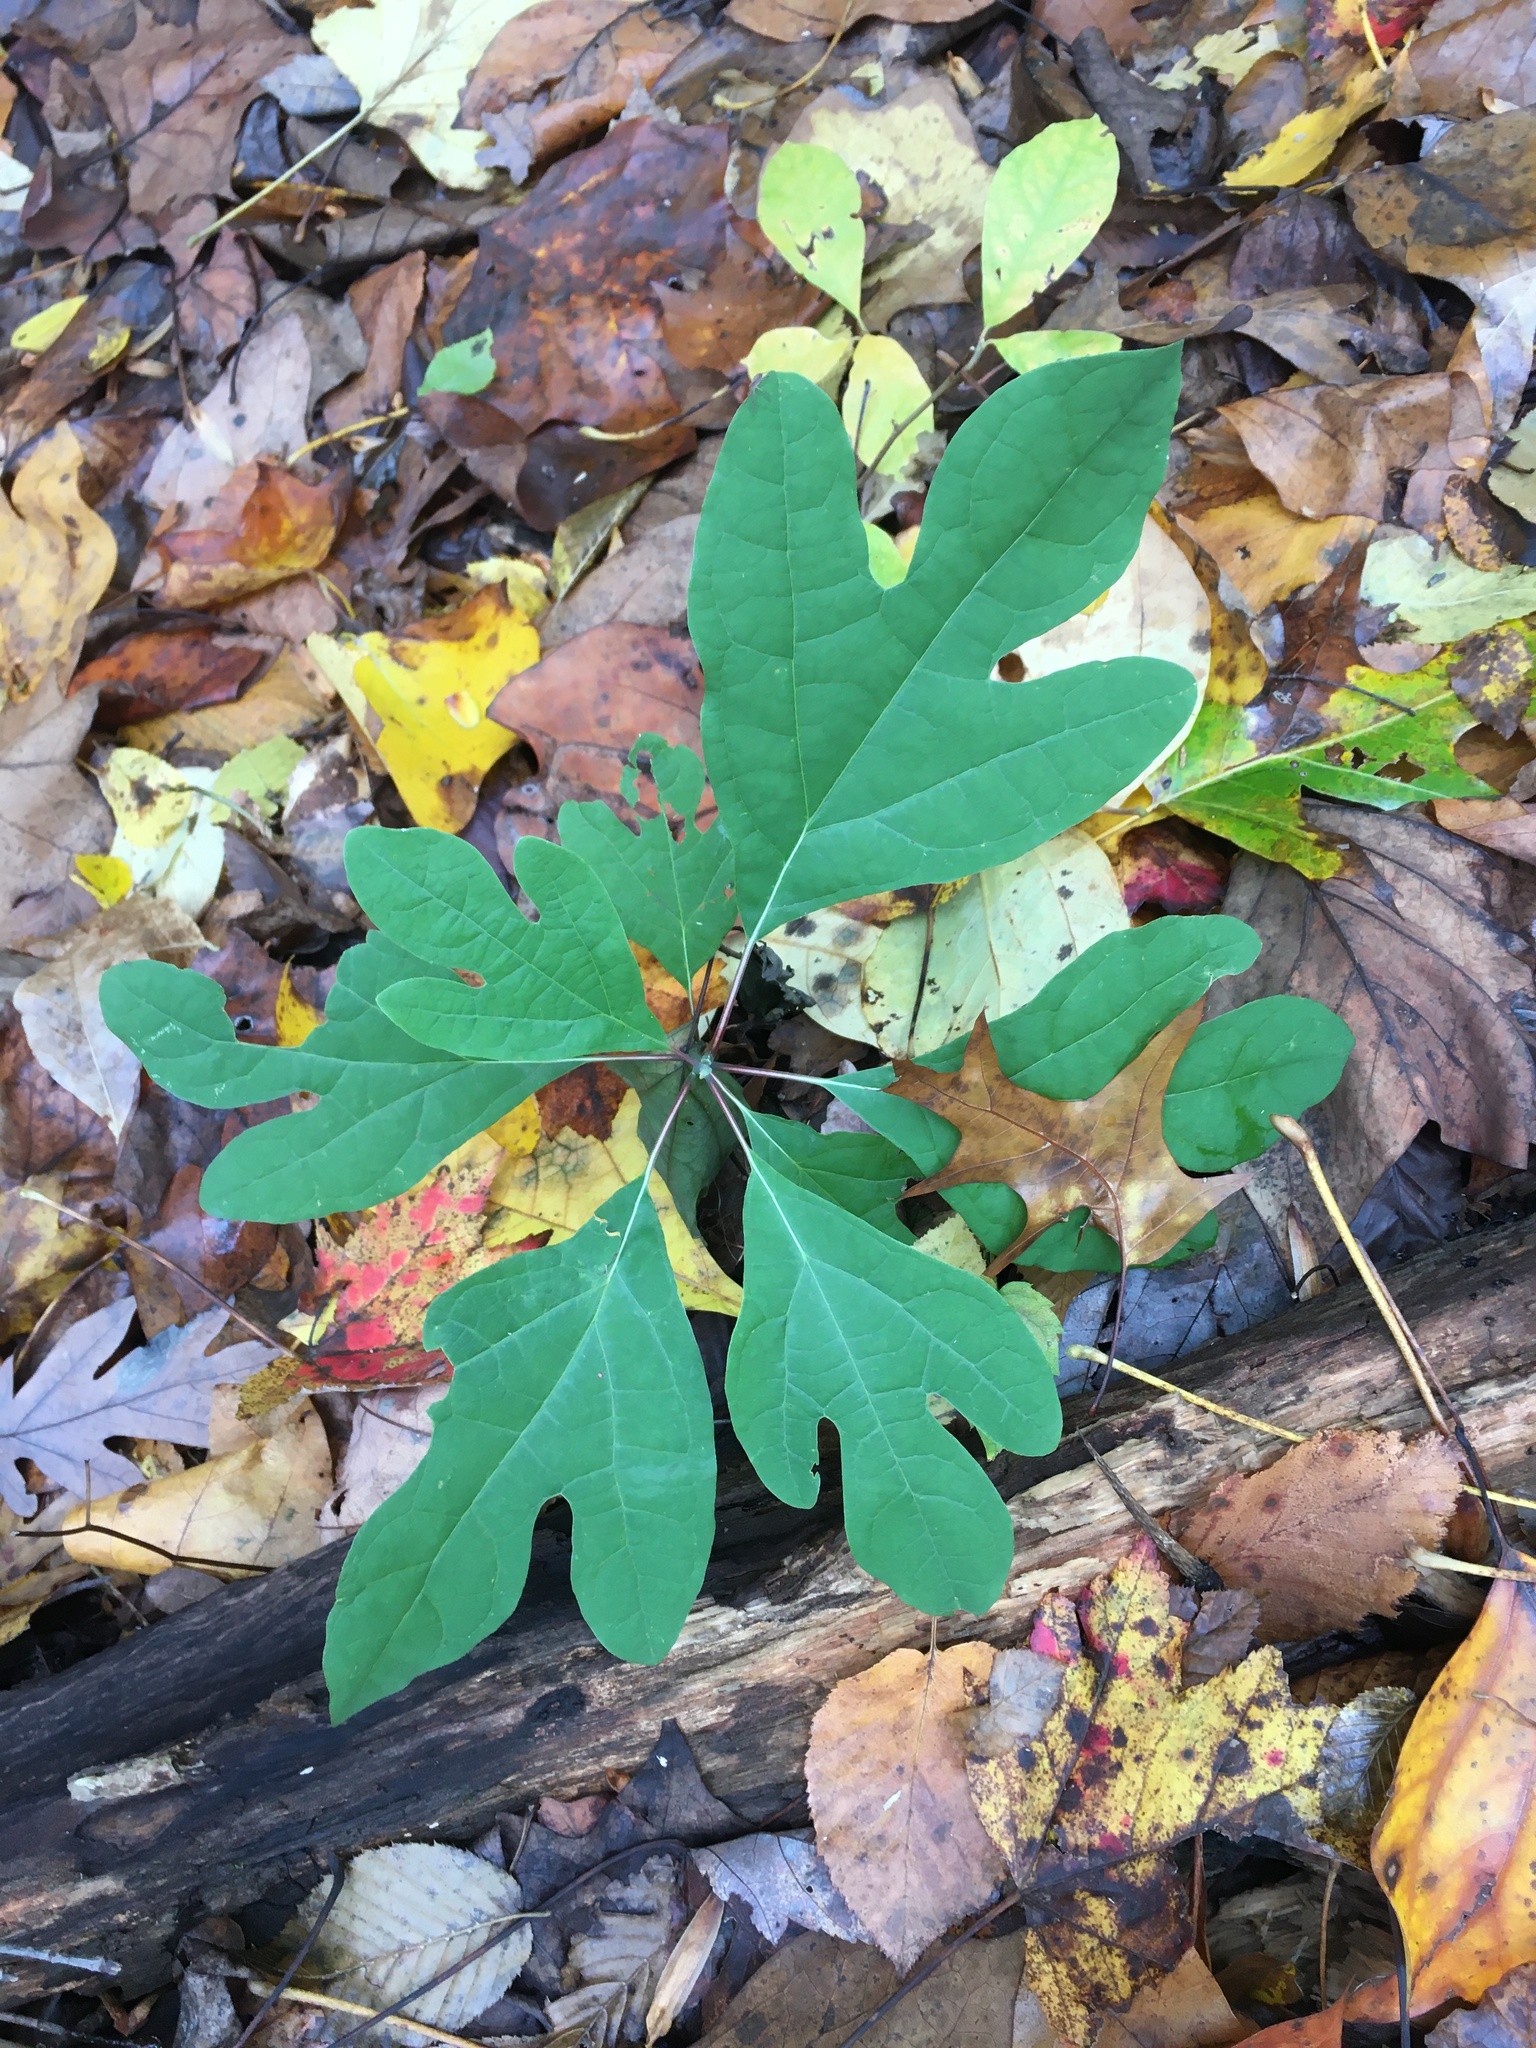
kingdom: Plantae
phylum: Tracheophyta
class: Magnoliopsida
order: Laurales
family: Lauraceae
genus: Sassafras
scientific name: Sassafras albidum
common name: Sassafras
